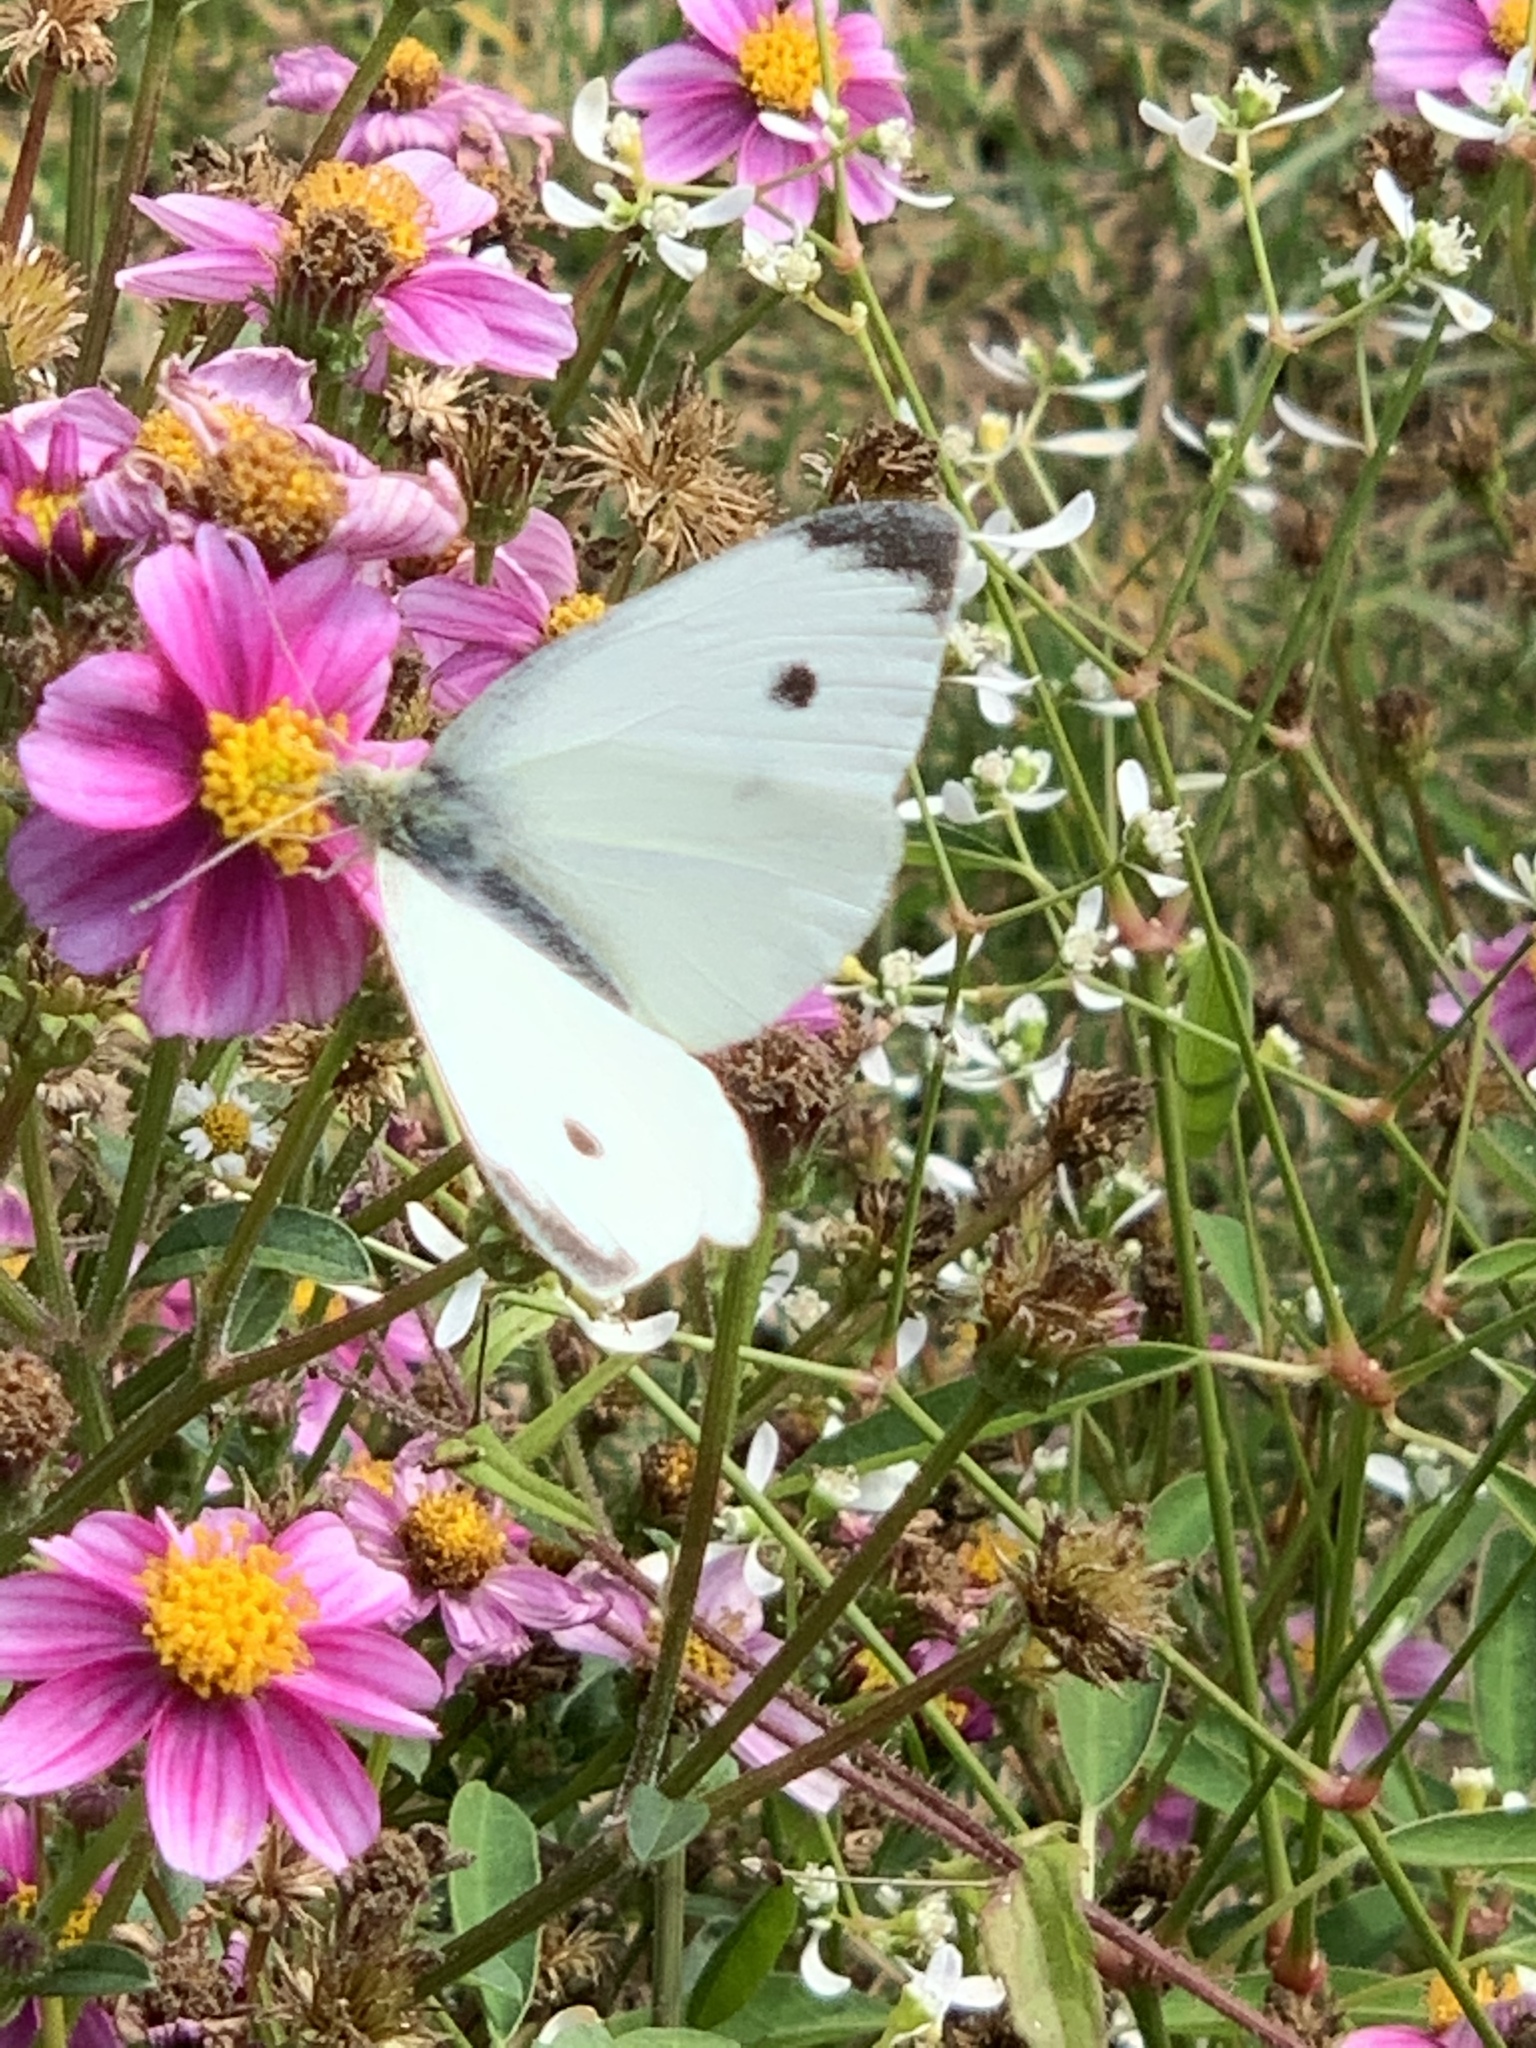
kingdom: Animalia
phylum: Arthropoda
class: Insecta
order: Lepidoptera
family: Pieridae
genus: Pieris
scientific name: Pieris rapae
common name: Small white
